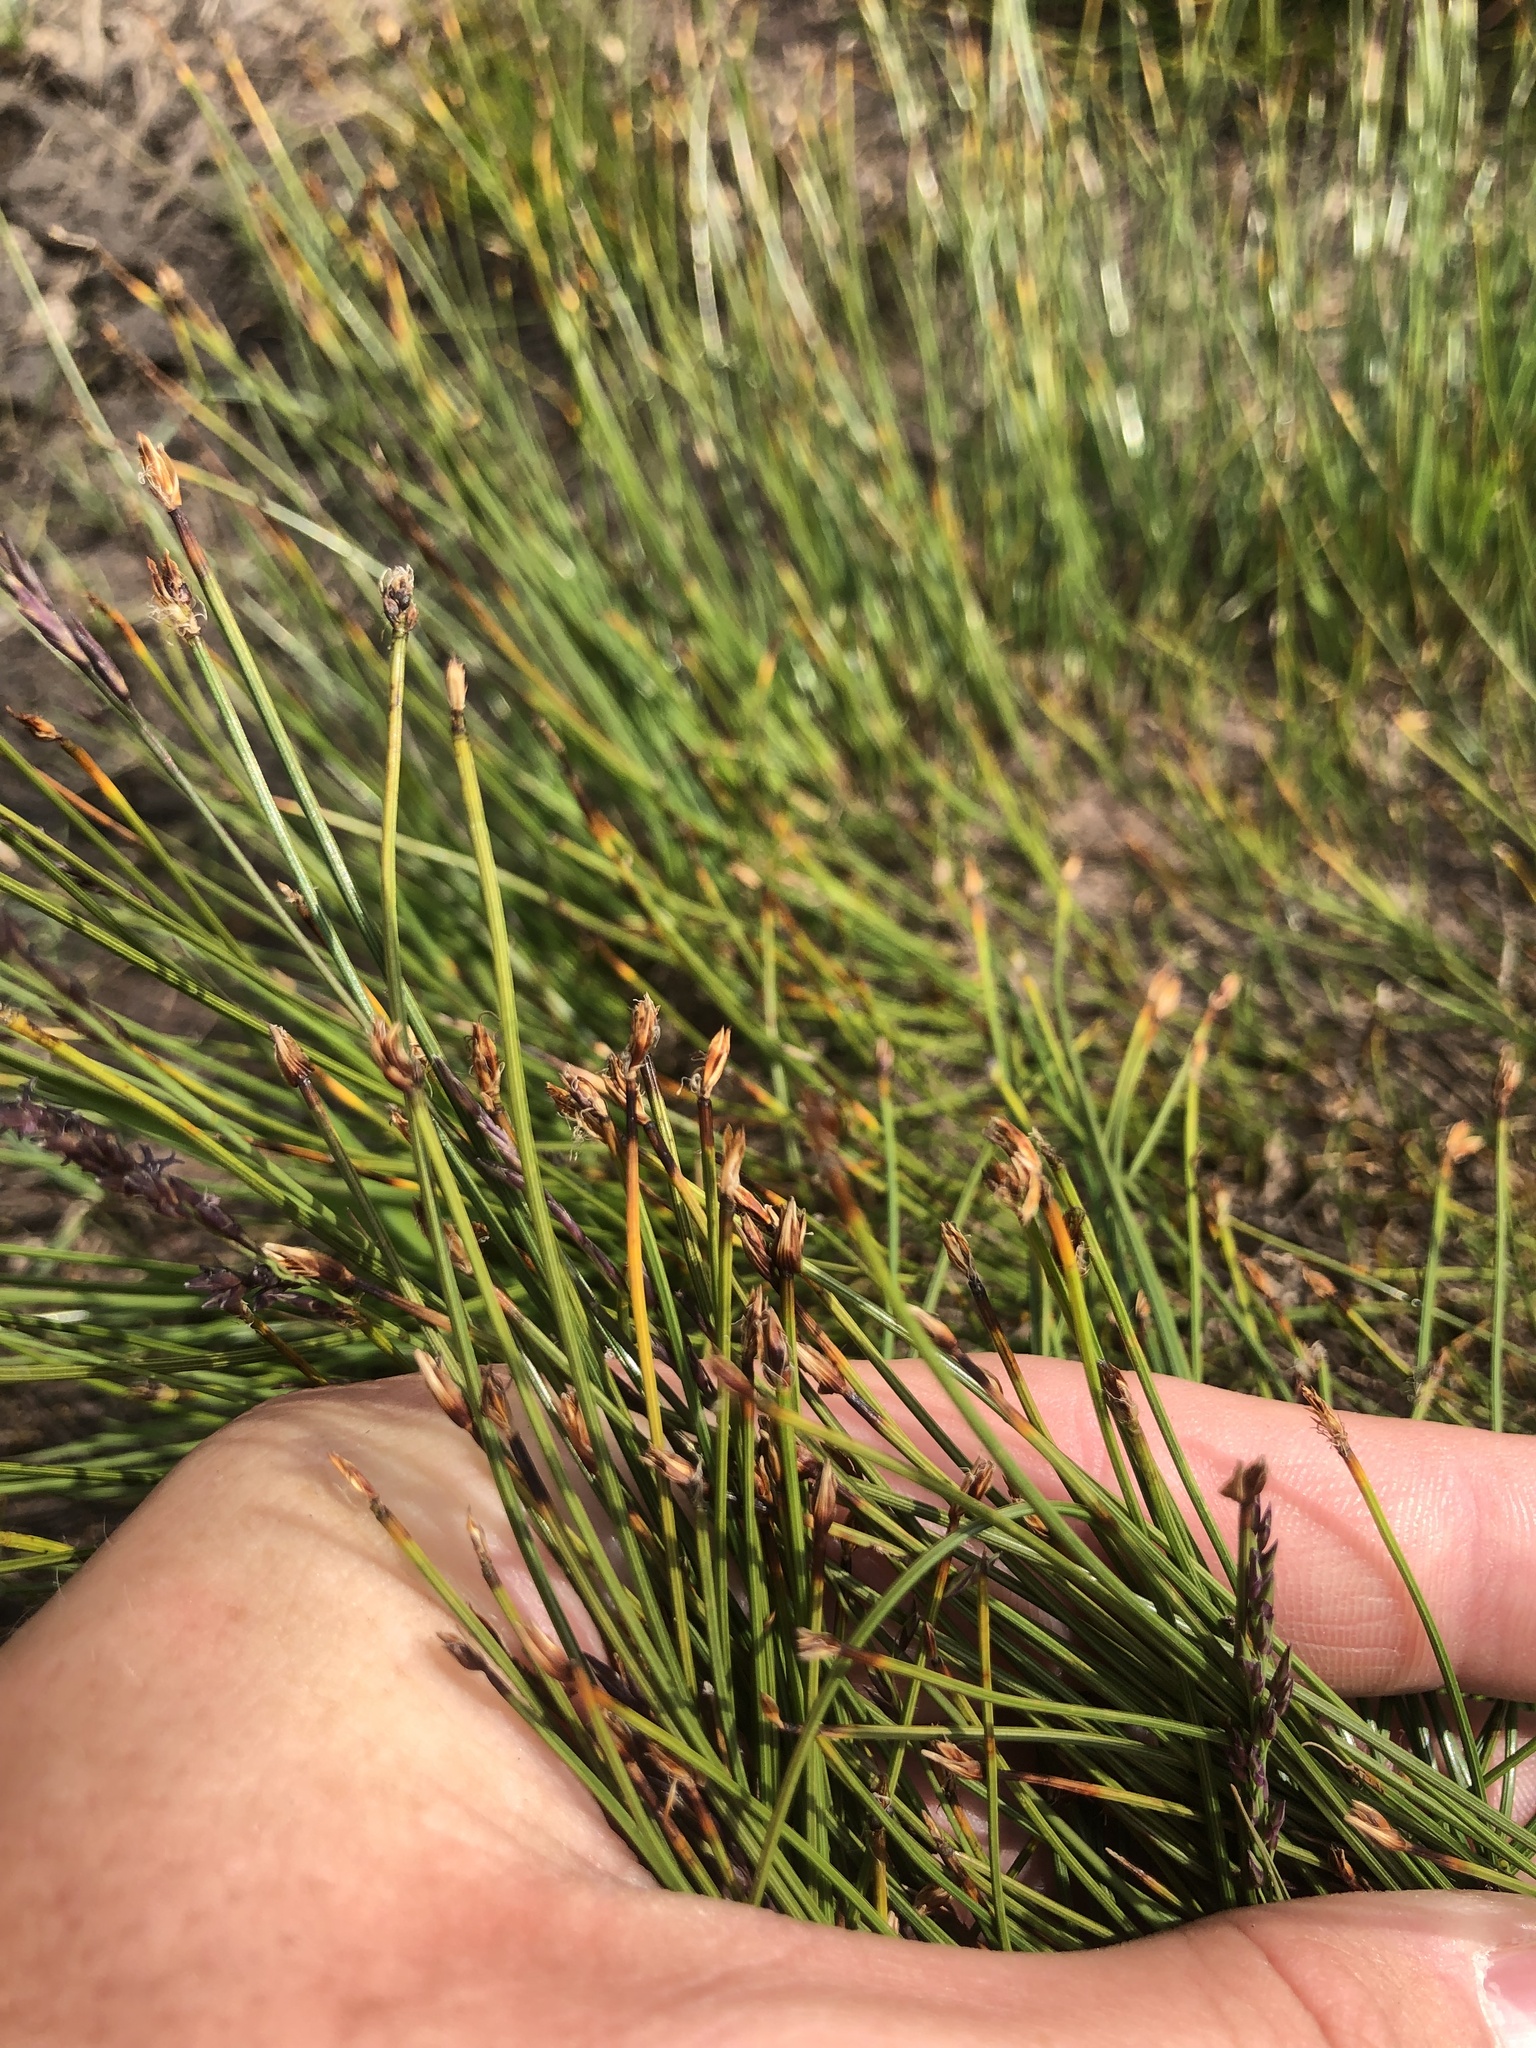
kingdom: Plantae
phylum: Tracheophyta
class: Liliopsida
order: Poales
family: Cyperaceae
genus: Trichophorum
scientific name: Trichophorum cespitosum
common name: Cespitose bulrush
